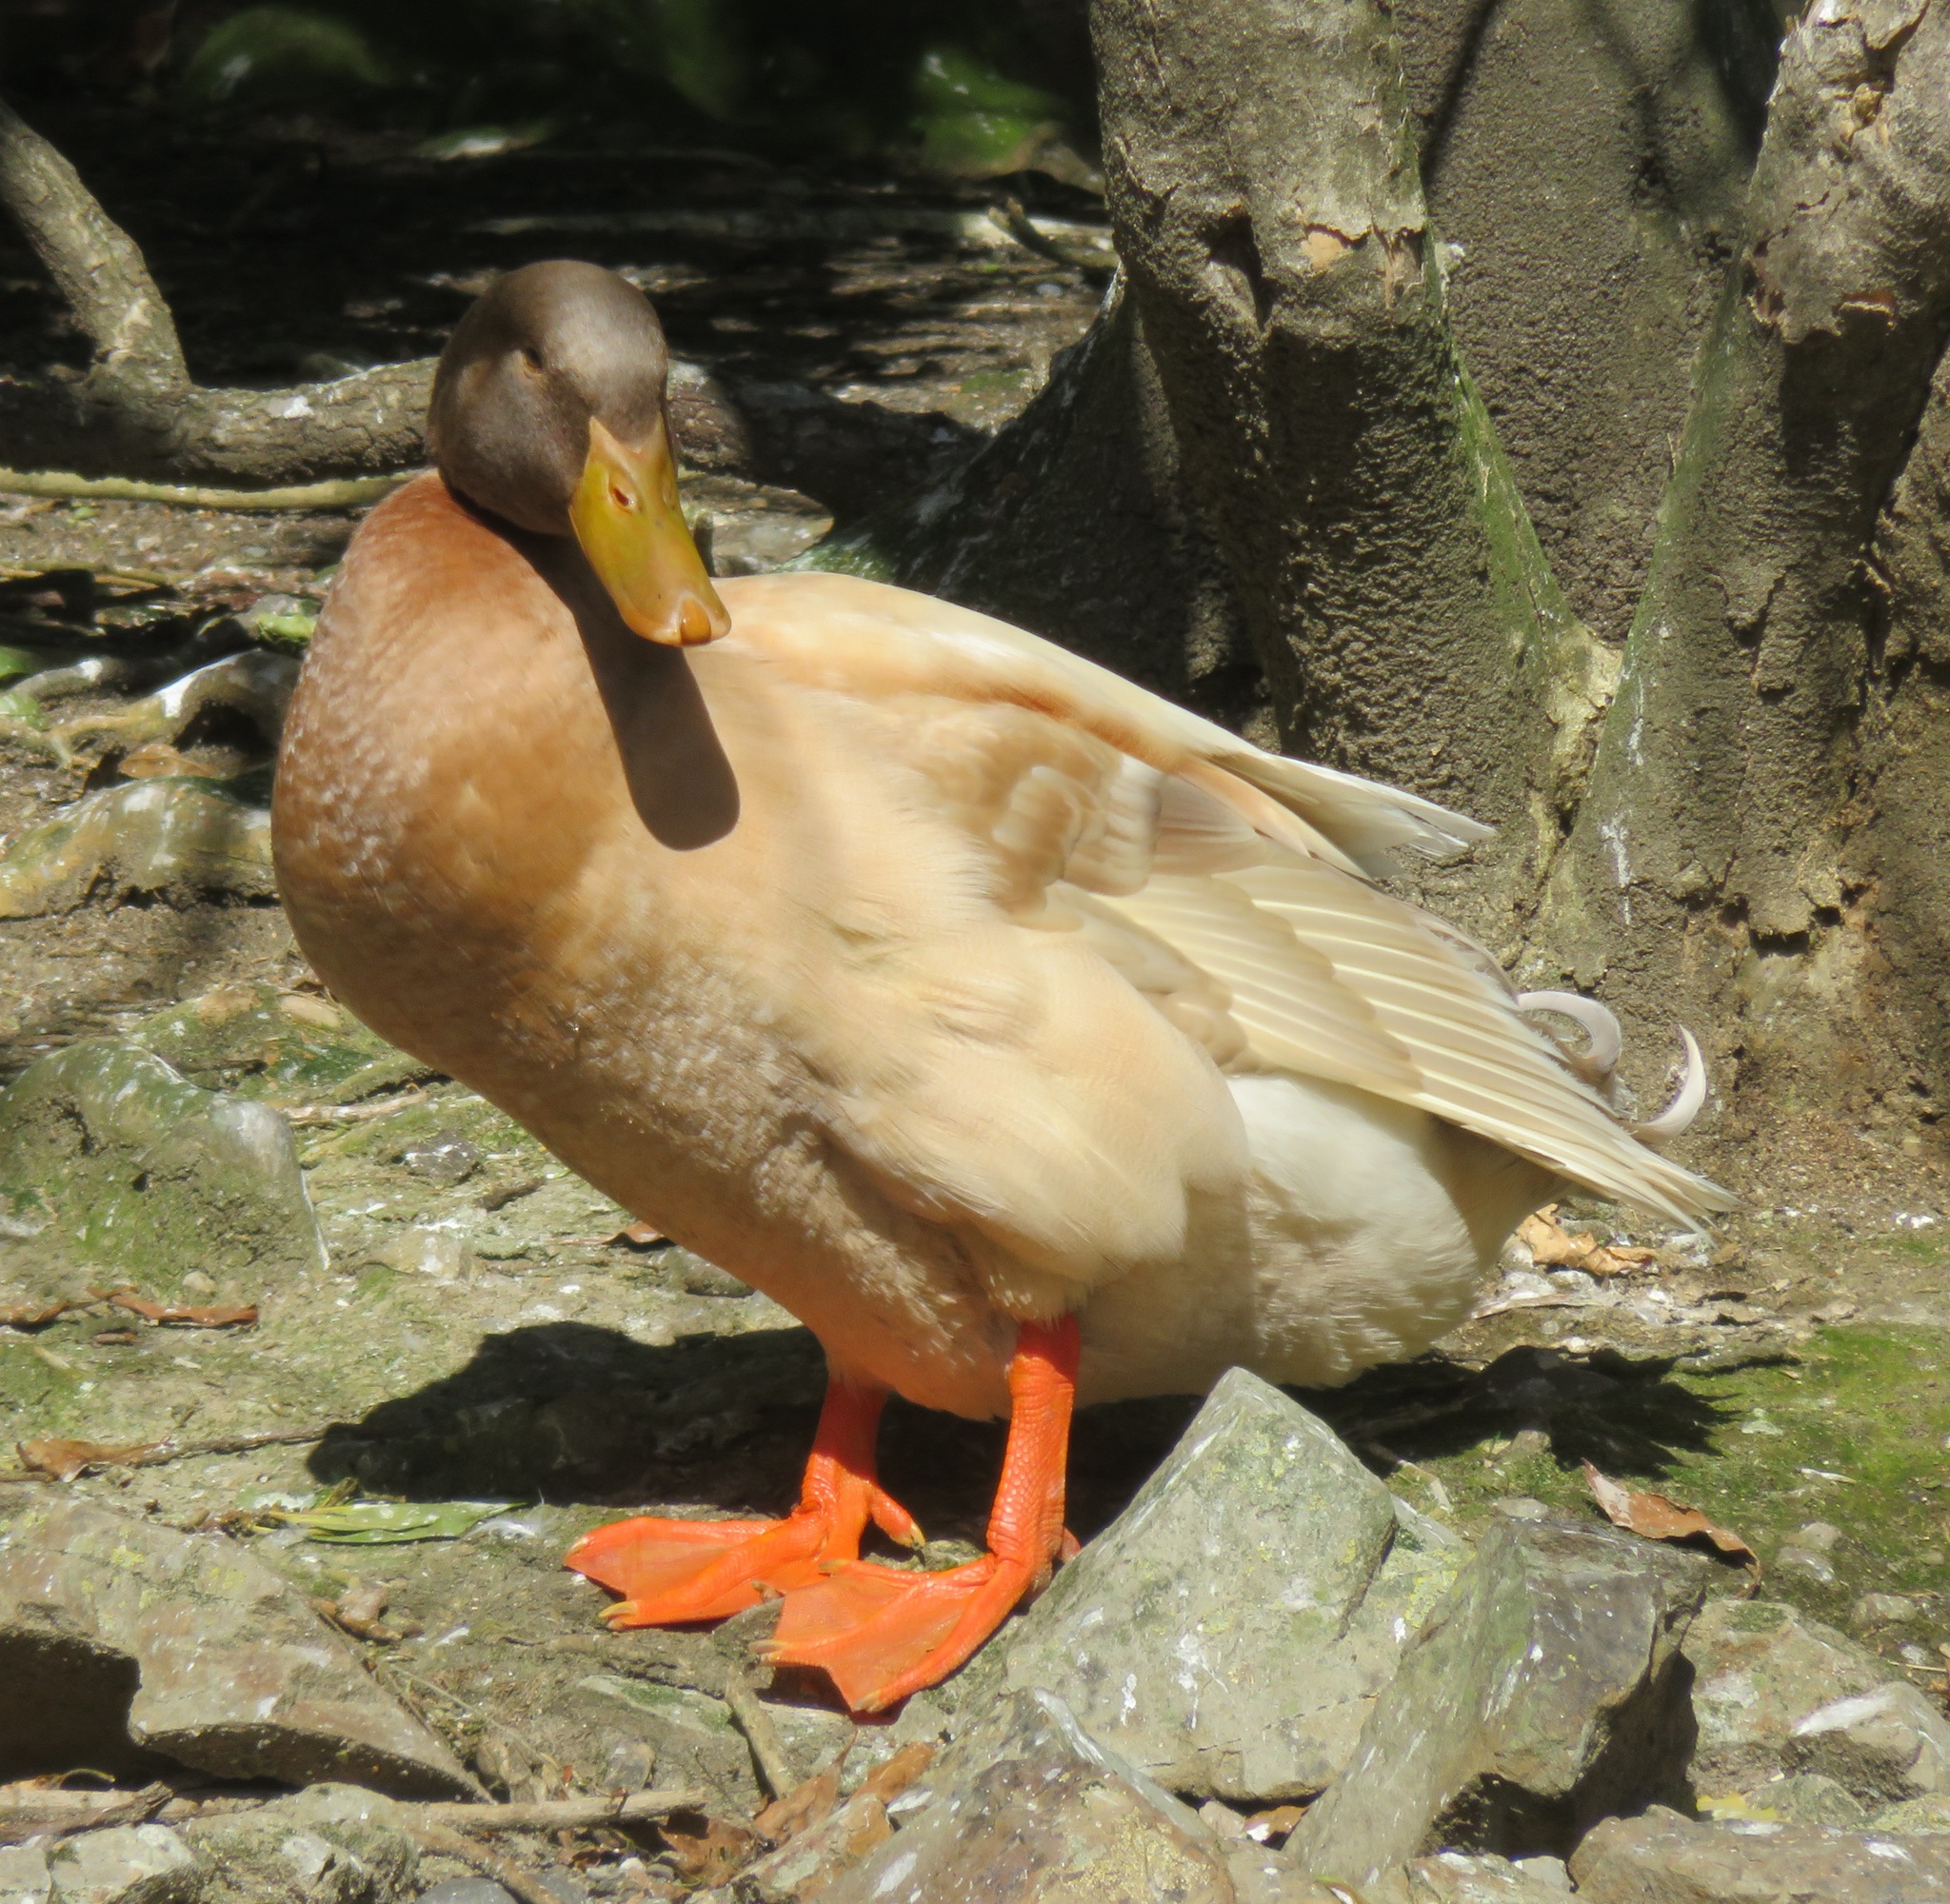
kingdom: Animalia
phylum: Chordata
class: Aves
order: Anseriformes
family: Anatidae
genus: Anas
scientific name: Anas platyrhynchos
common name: Mallard
